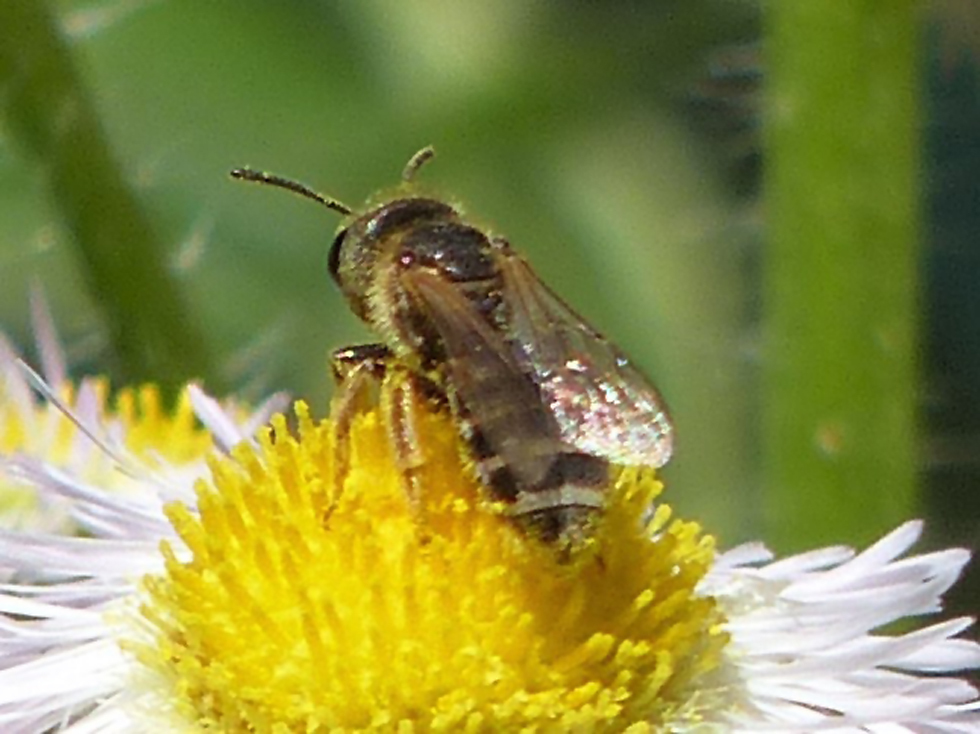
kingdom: Animalia
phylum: Arthropoda
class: Insecta
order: Hymenoptera
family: Halictidae
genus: Halictus
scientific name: Halictus ligatus
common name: Ligated furrow bee
